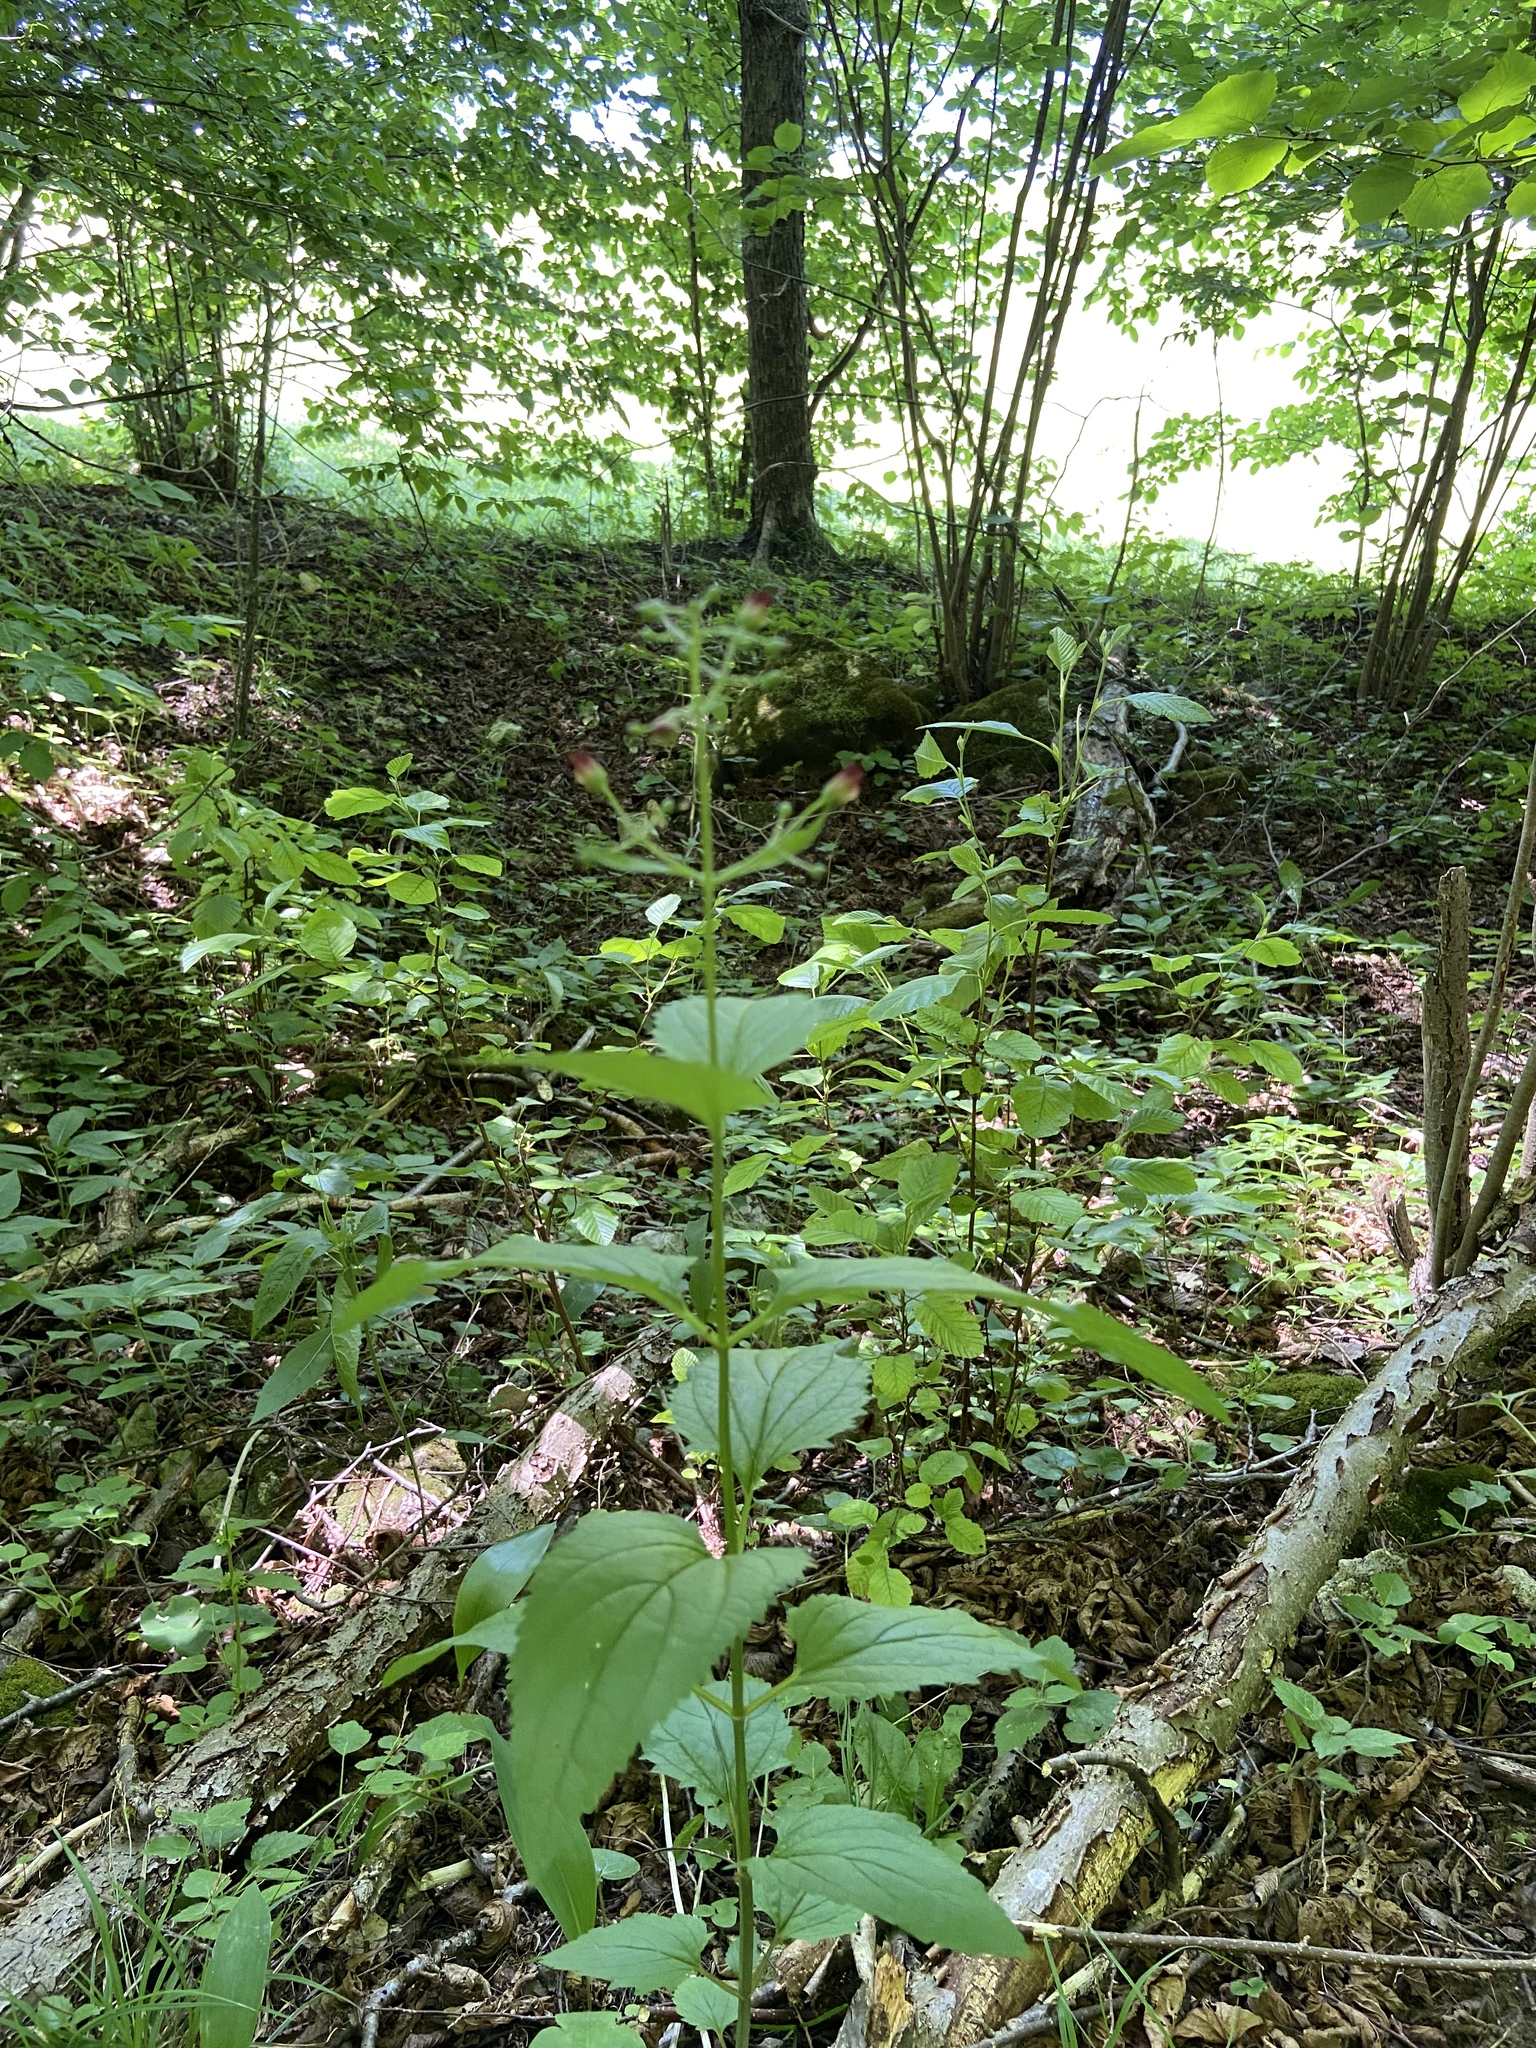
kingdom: Plantae
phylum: Tracheophyta
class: Magnoliopsida
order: Lamiales
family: Scrophulariaceae
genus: Scrophularia
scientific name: Scrophularia nodosa
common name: Common figwort
